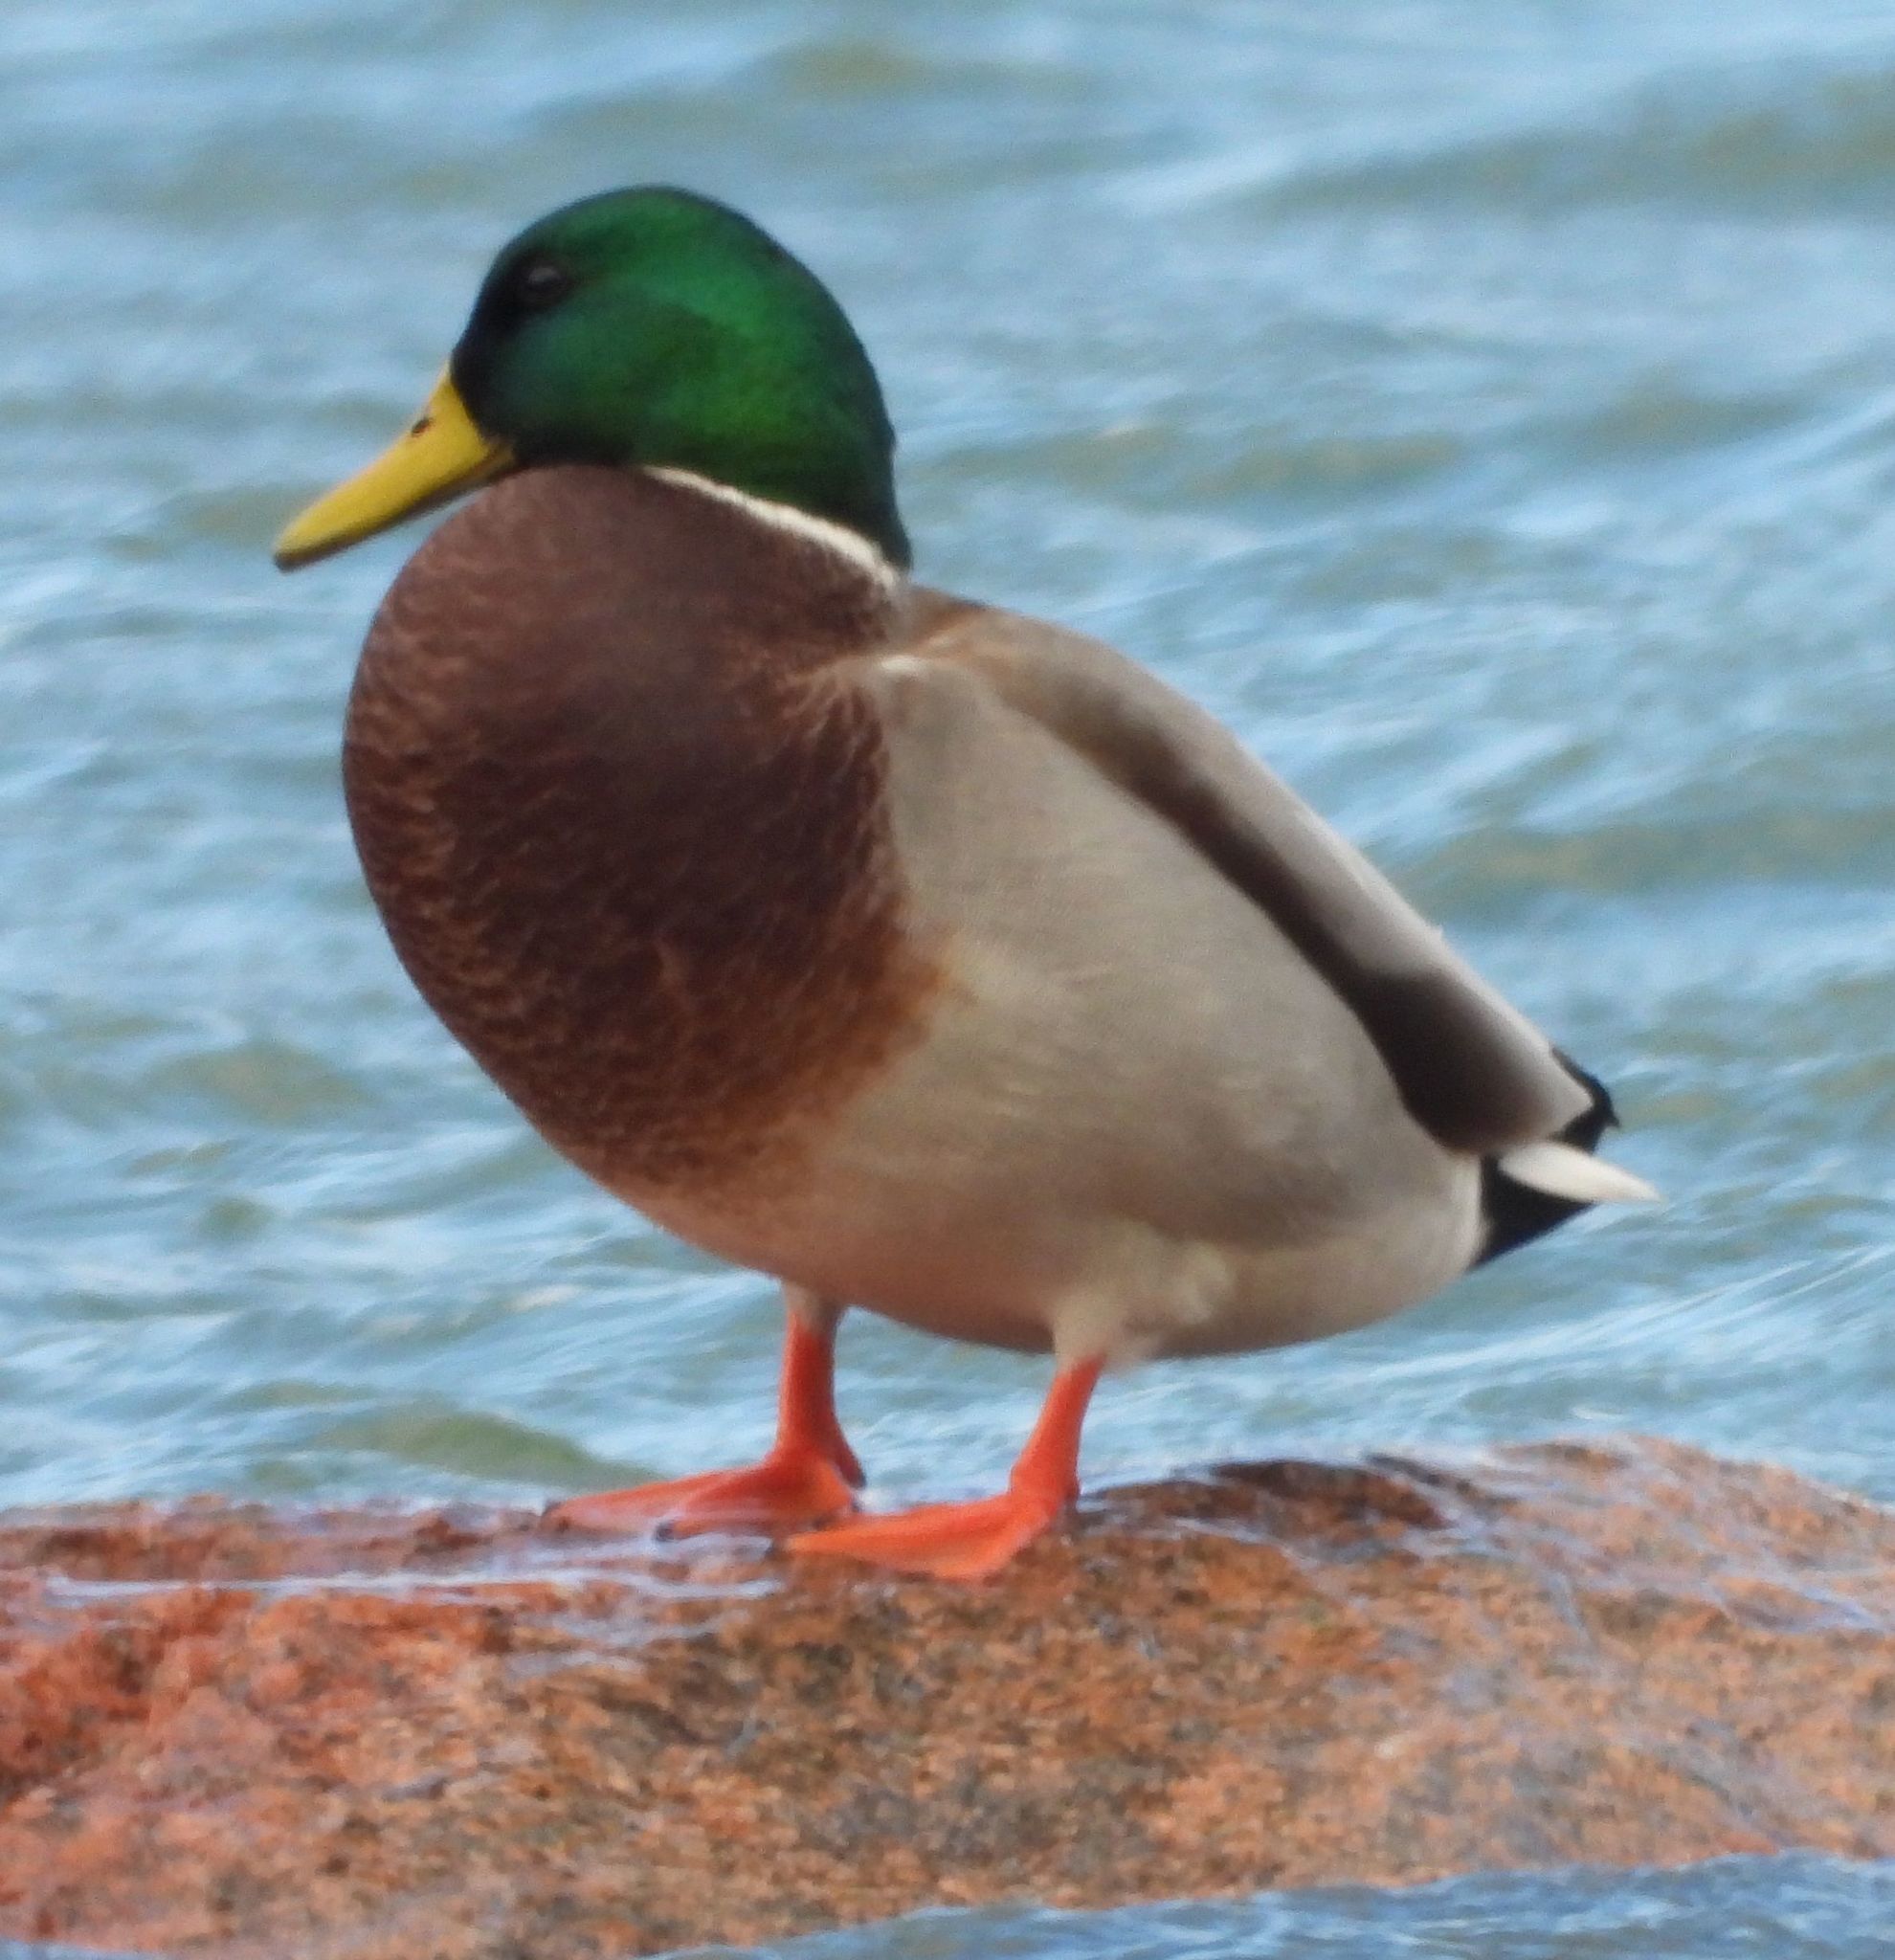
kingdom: Animalia
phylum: Chordata
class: Aves
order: Anseriformes
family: Anatidae
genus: Anas
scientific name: Anas platyrhynchos
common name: Mallard
